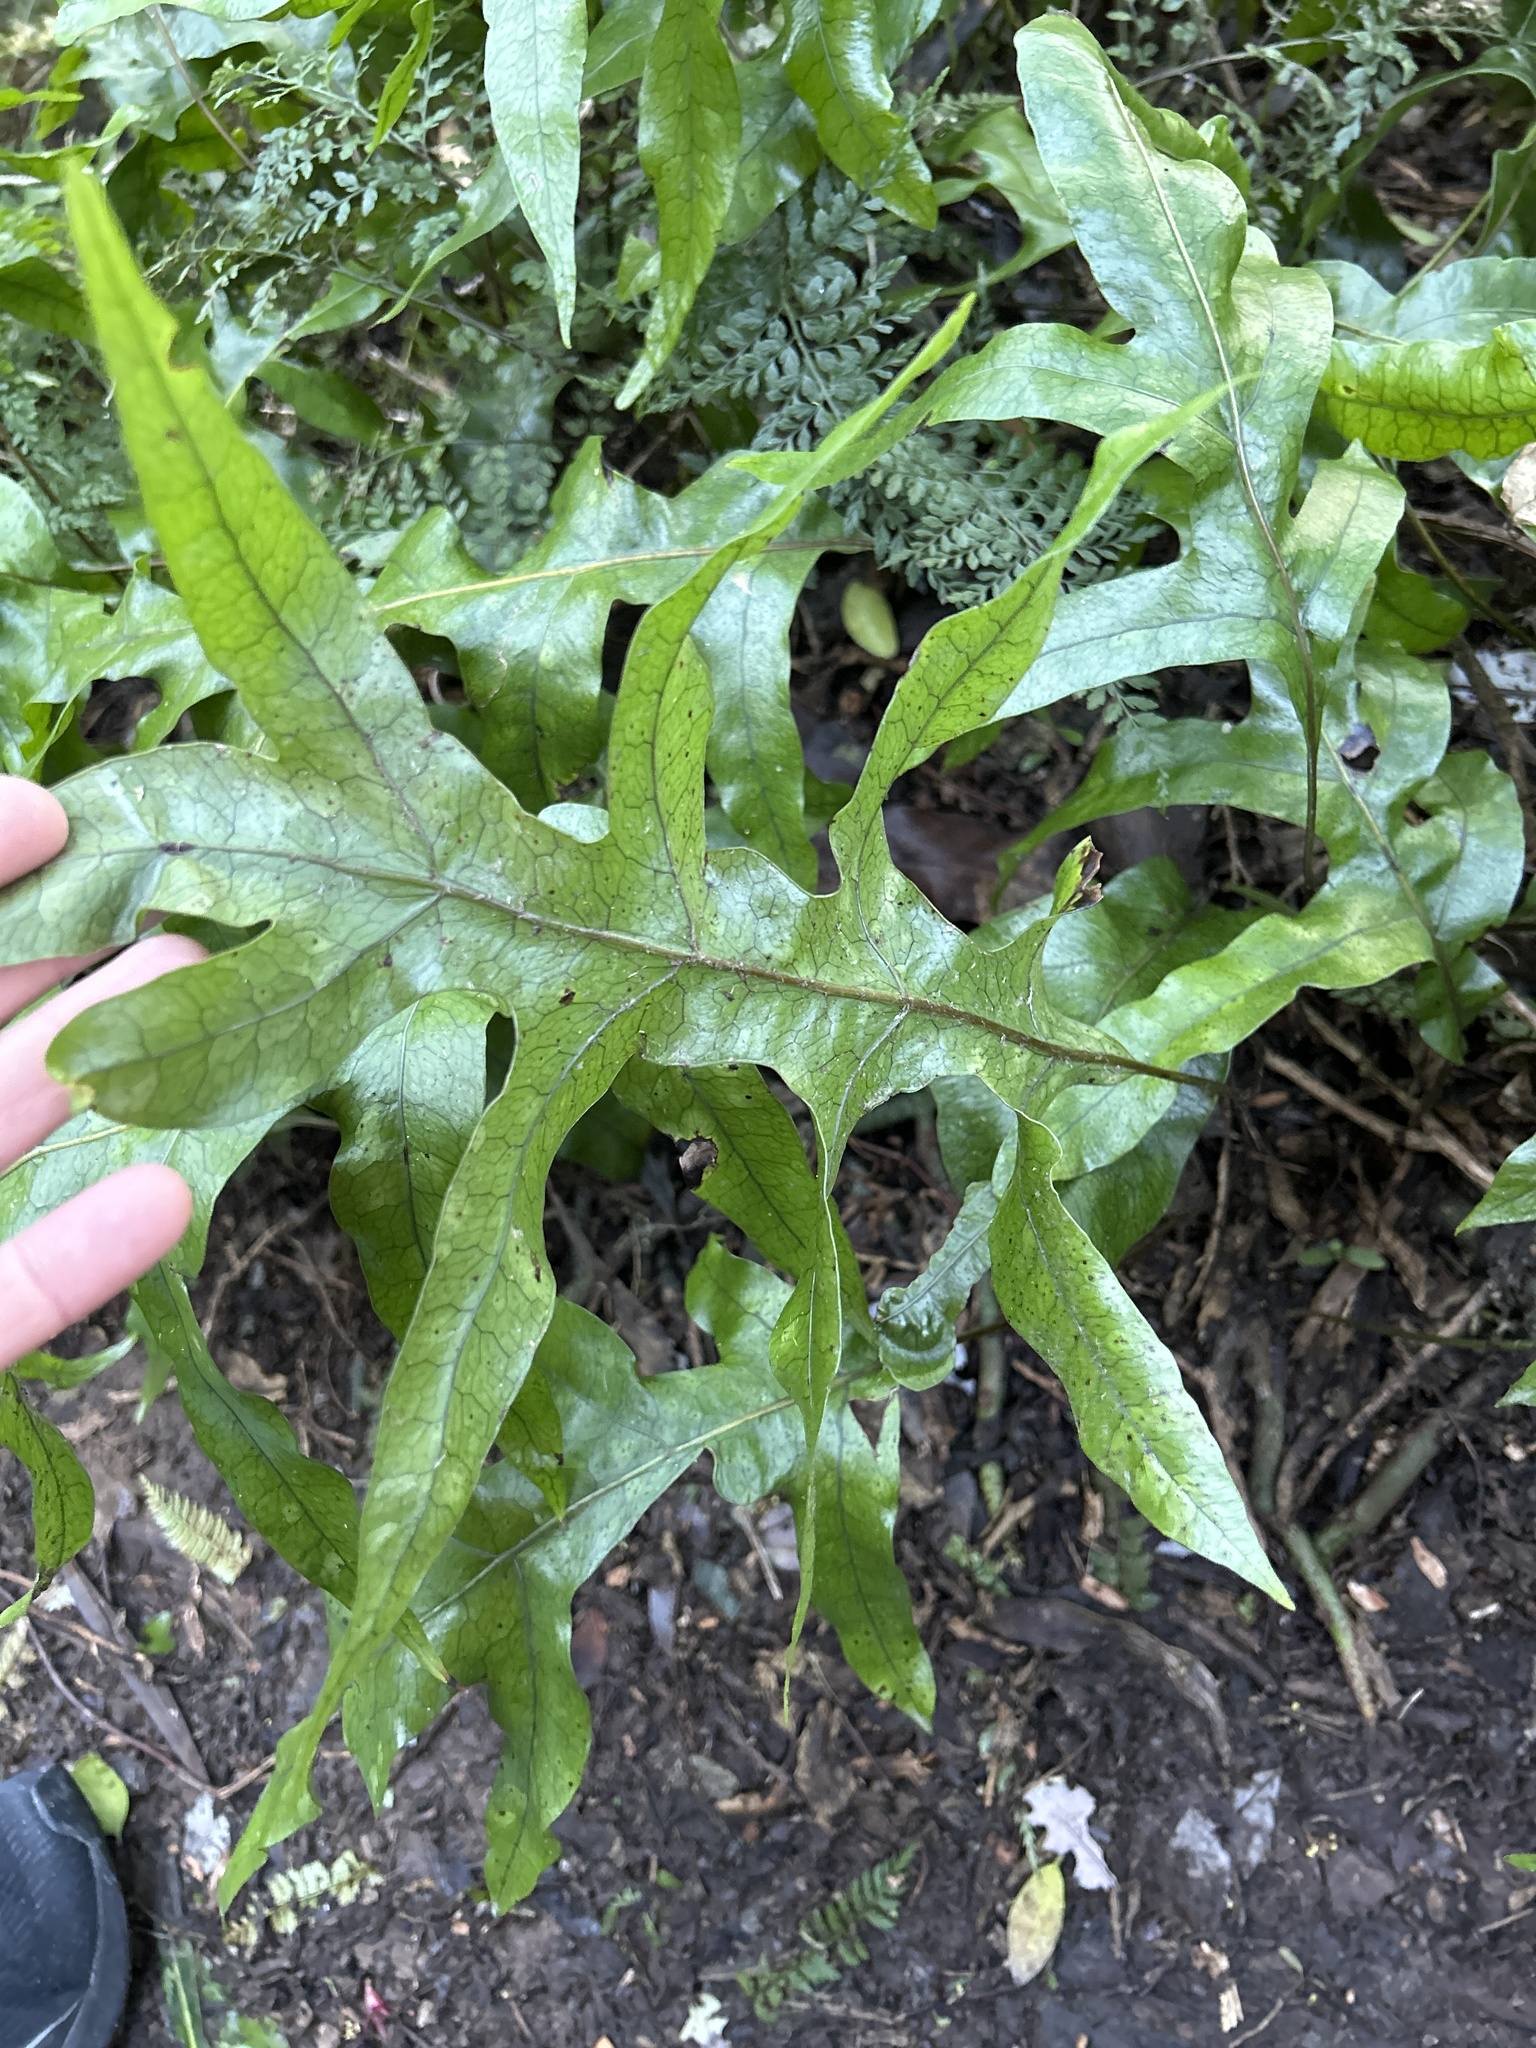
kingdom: Plantae
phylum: Tracheophyta
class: Polypodiopsida
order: Polypodiales
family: Polypodiaceae
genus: Lecanopteris
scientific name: Lecanopteris pustulata
